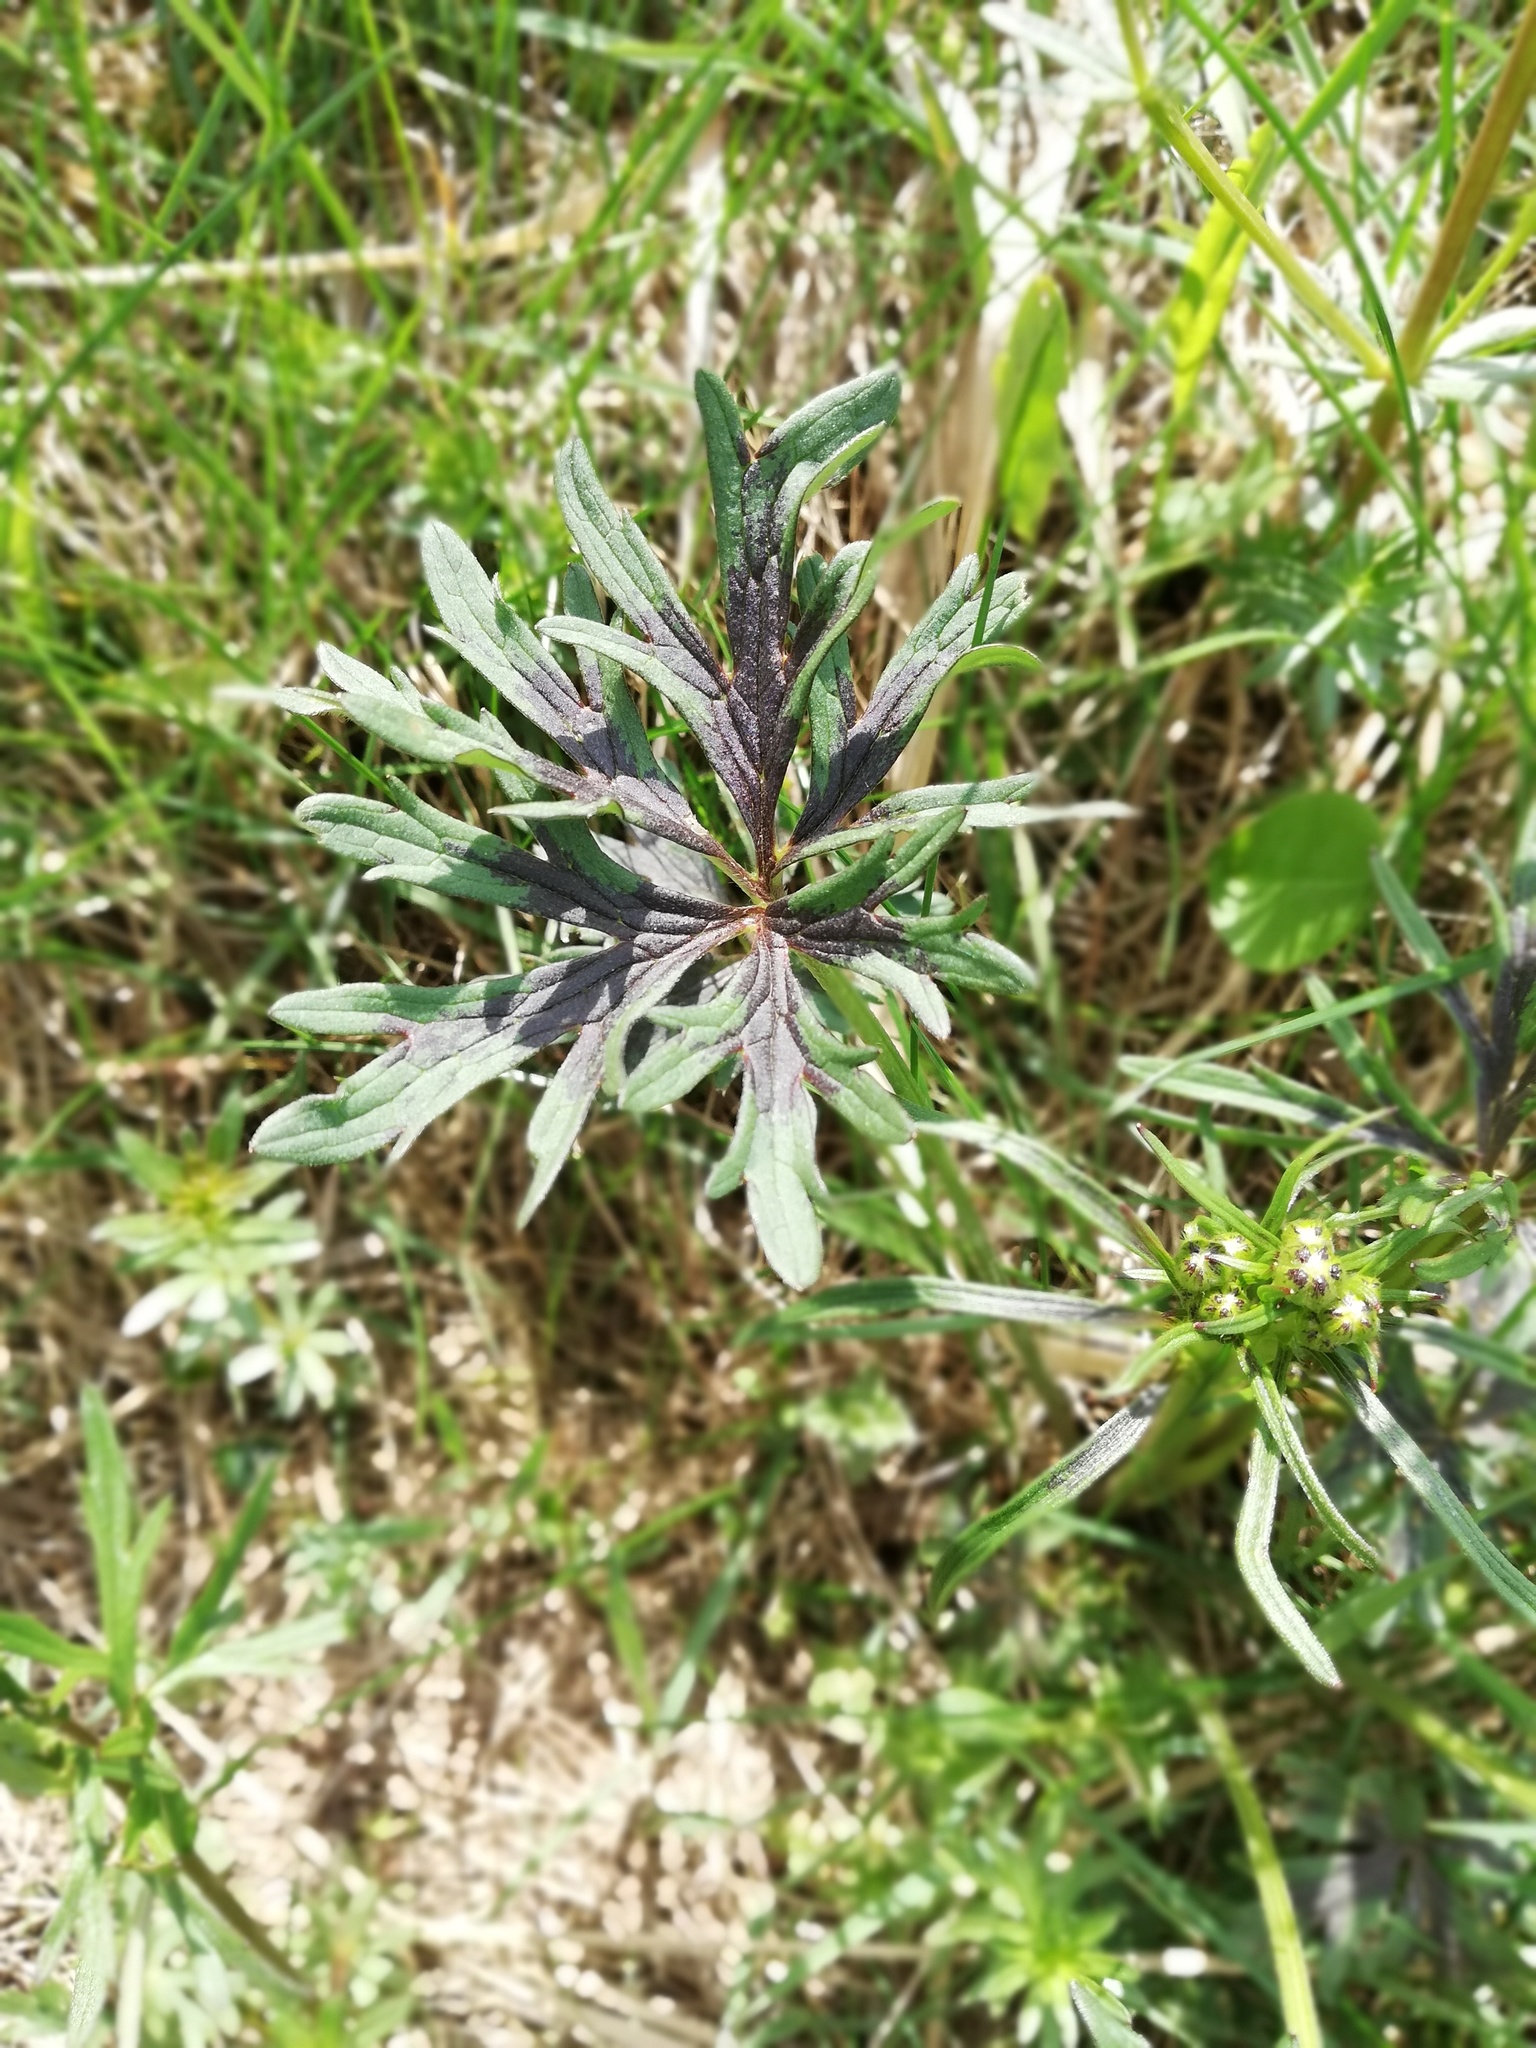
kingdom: Plantae
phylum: Tracheophyta
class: Magnoliopsida
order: Ranunculales
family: Ranunculaceae
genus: Ranunculus
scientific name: Ranunculus acris
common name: Meadow buttercup
